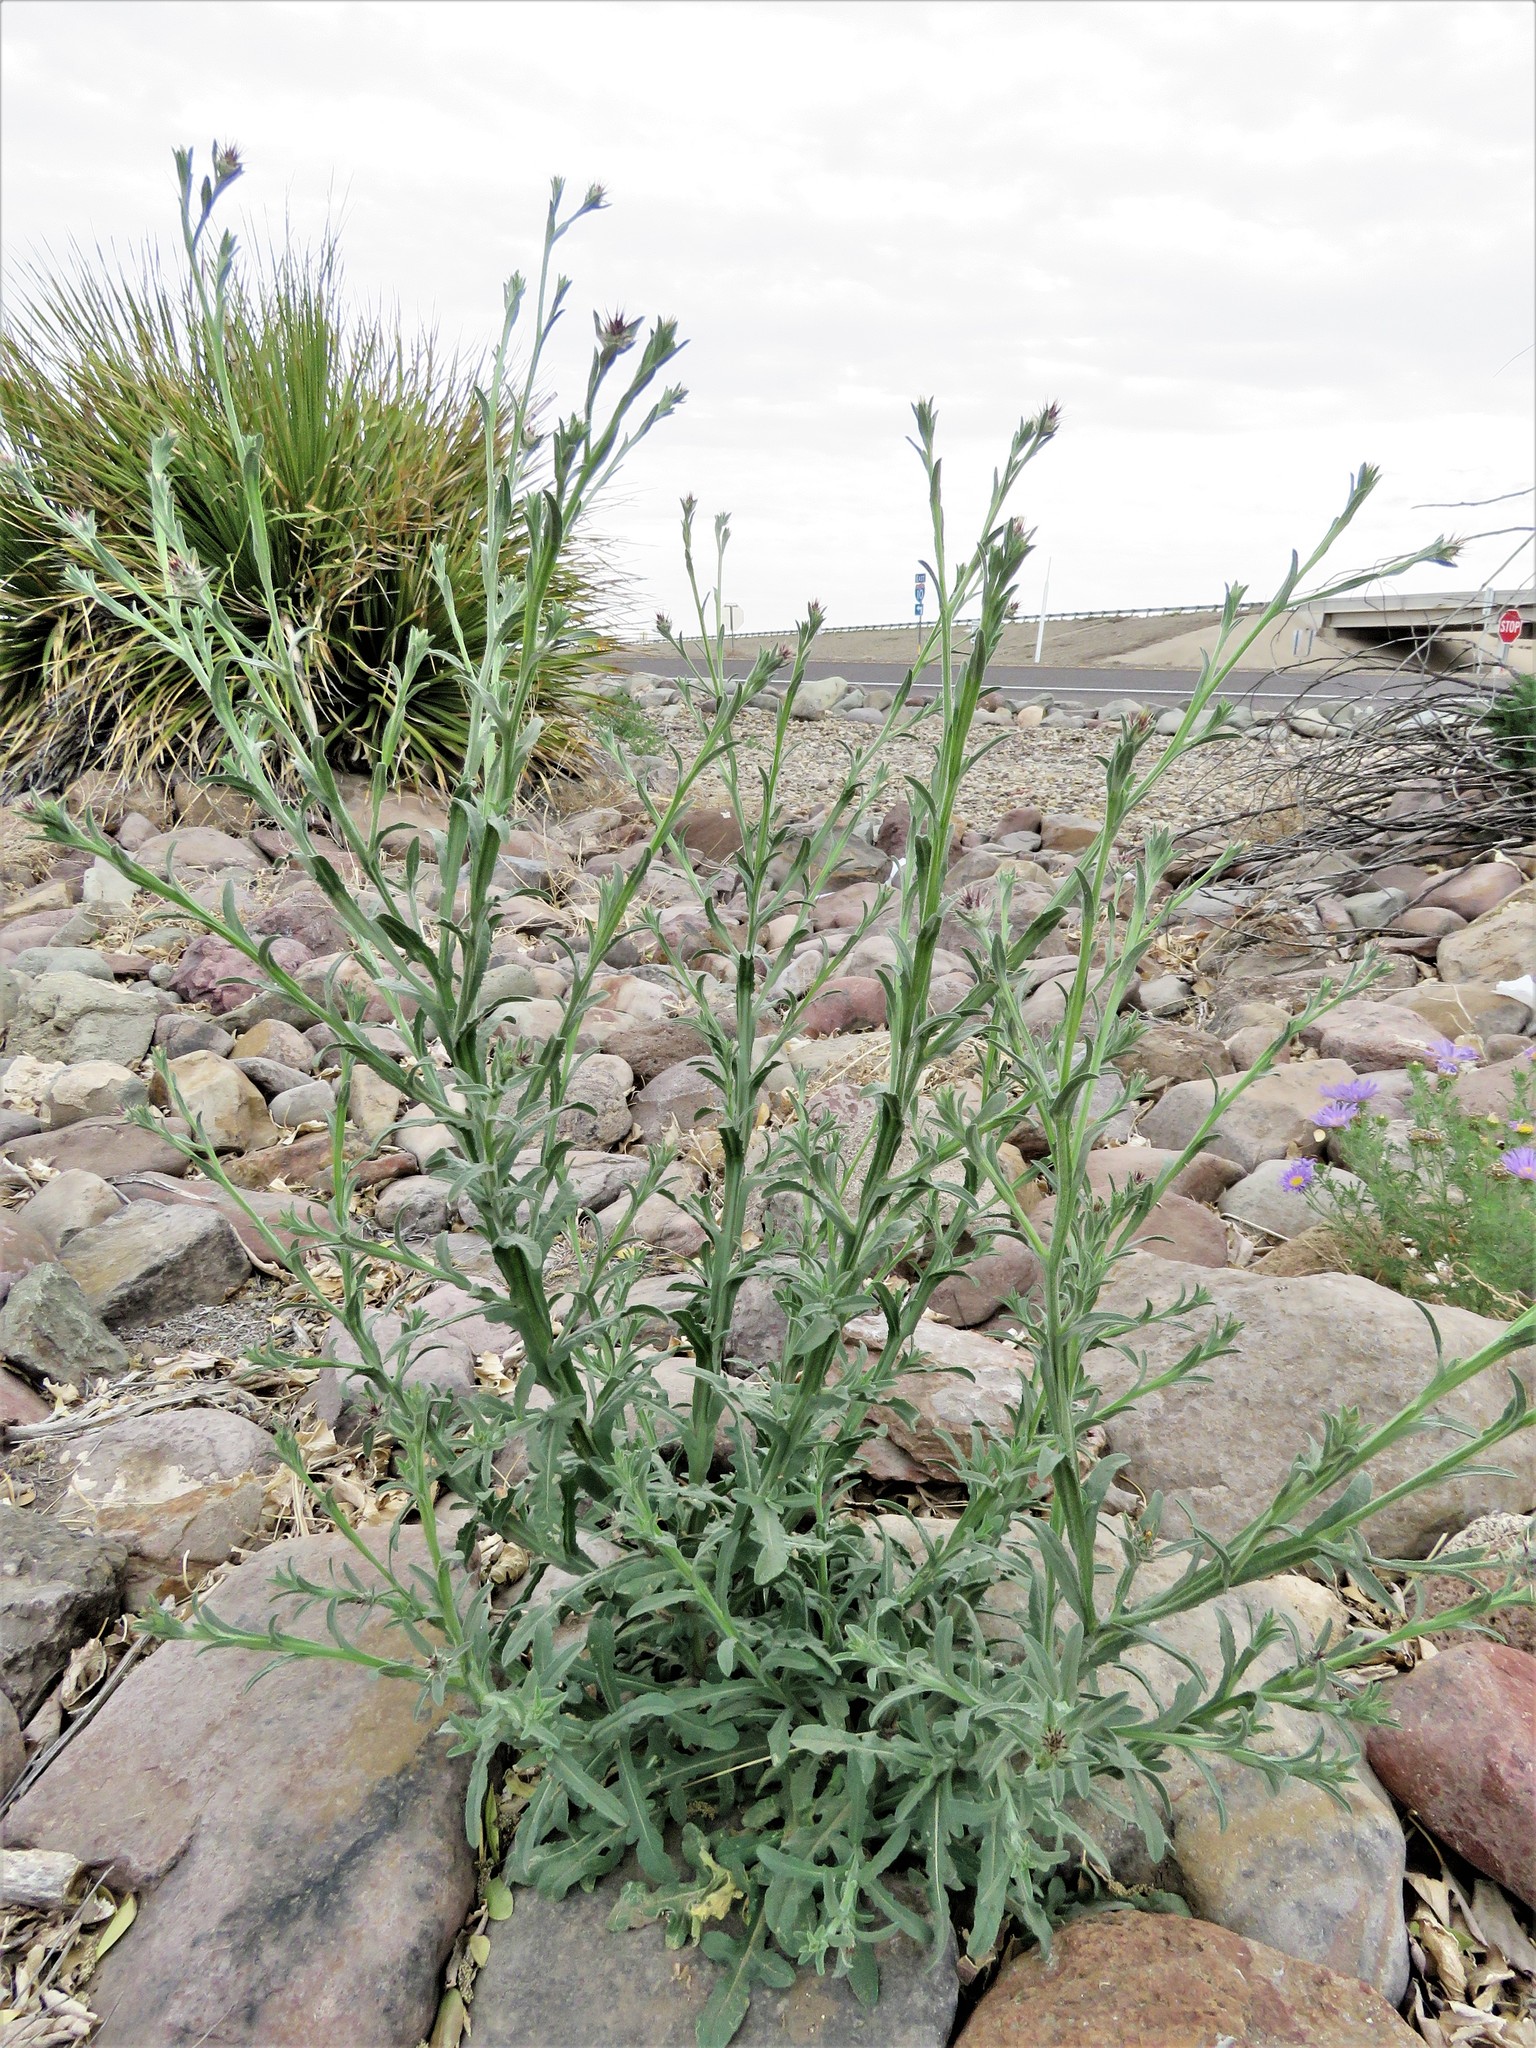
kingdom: Plantae
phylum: Tracheophyta
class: Magnoliopsida
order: Asterales
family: Asteraceae
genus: Centaurea
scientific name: Centaurea melitensis
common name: Maltese star-thistle
